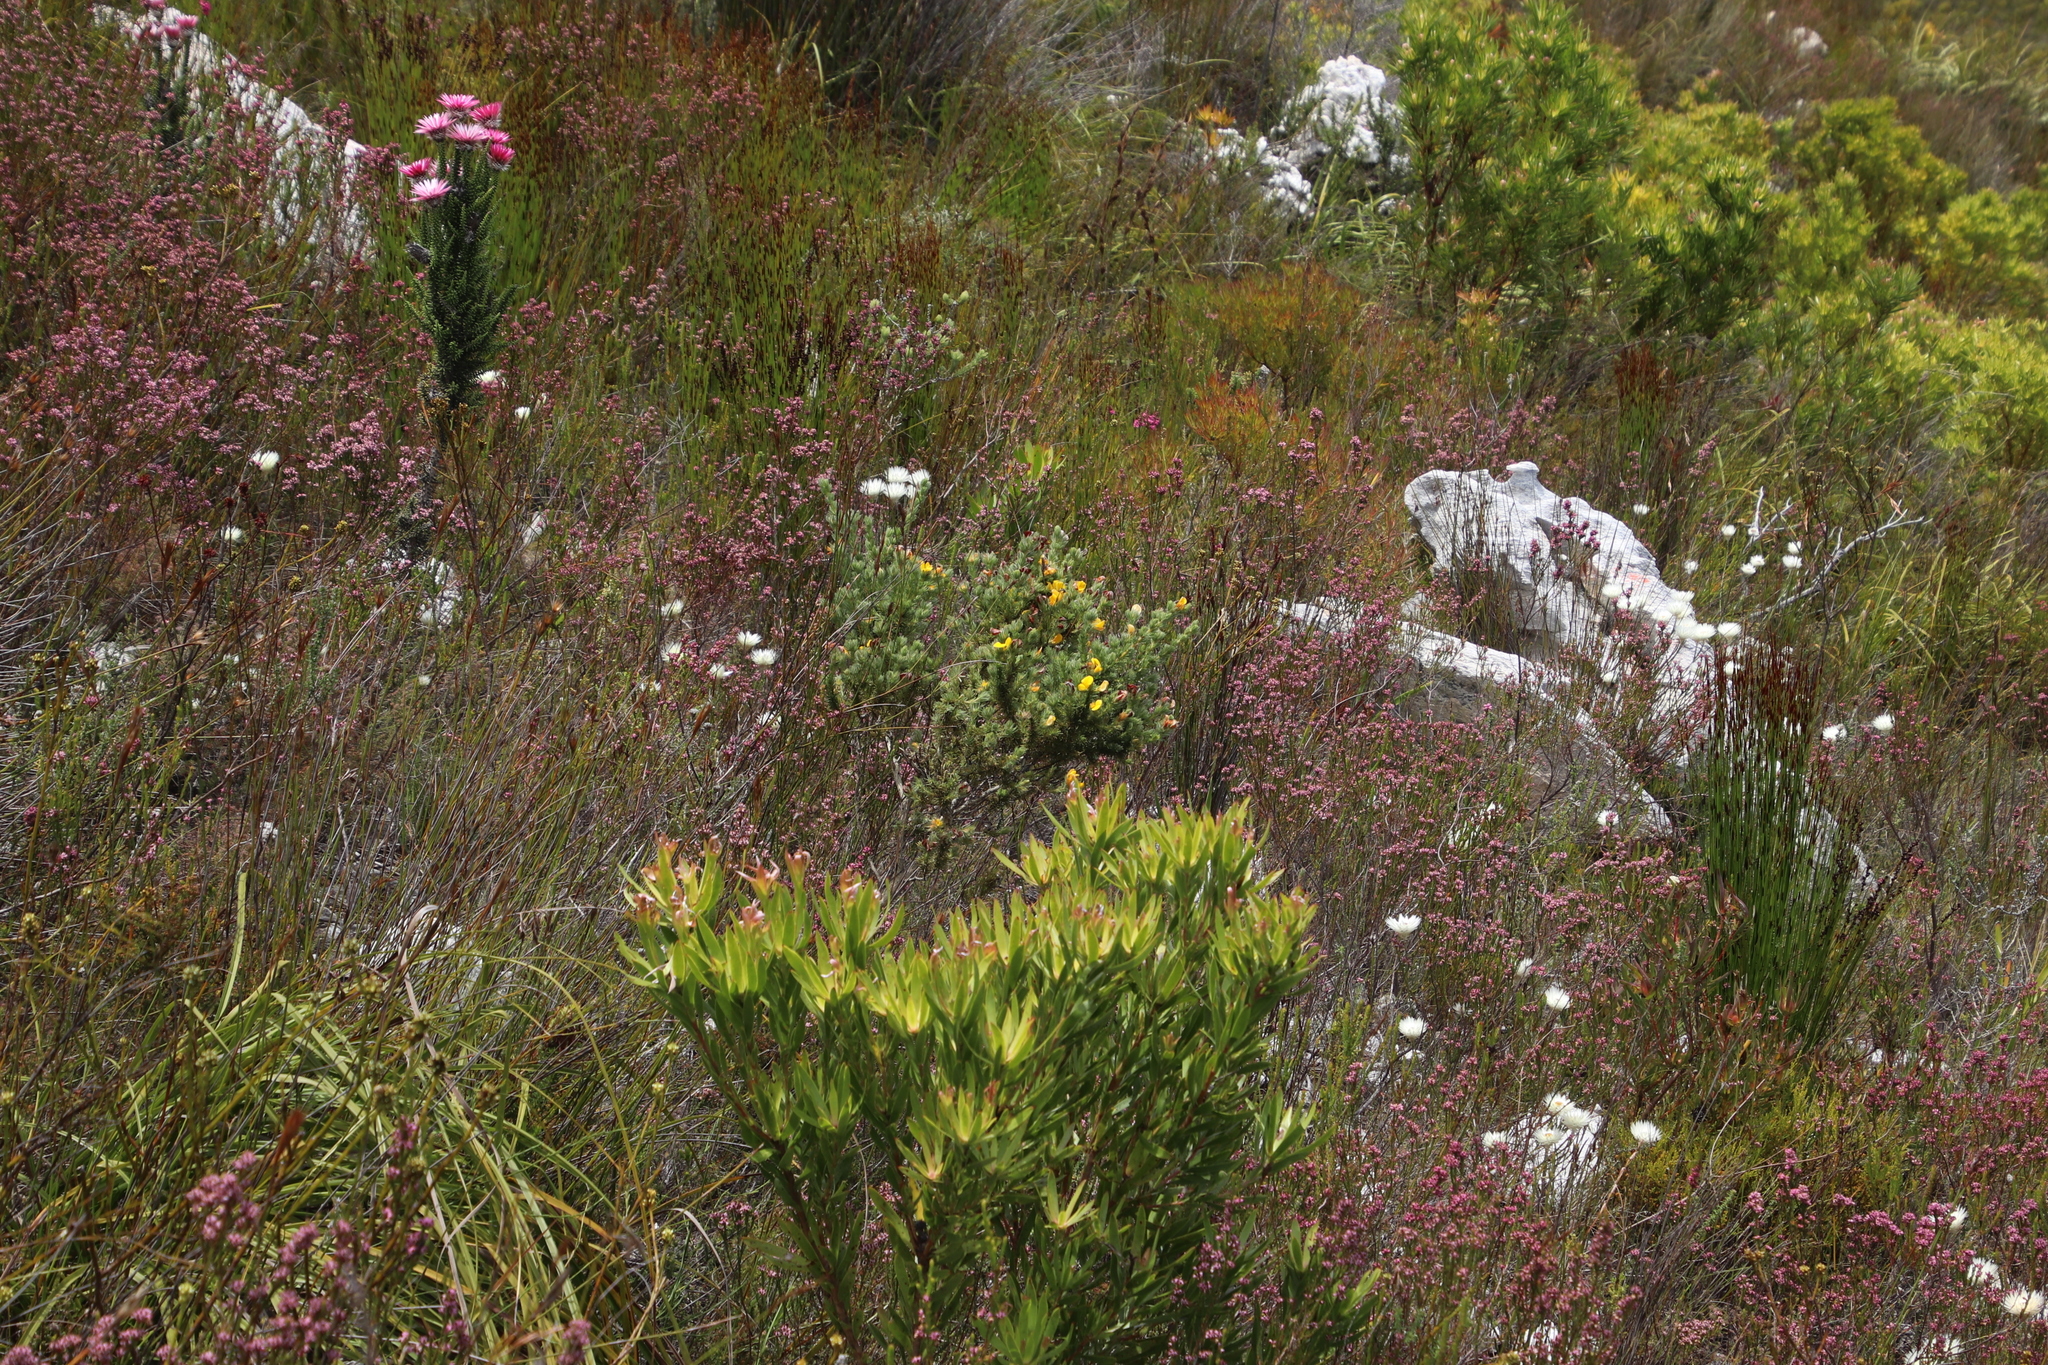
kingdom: Plantae
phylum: Tracheophyta
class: Magnoliopsida
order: Fabales
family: Fabaceae
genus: Aspalathus
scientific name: Aspalathus ciliaris
